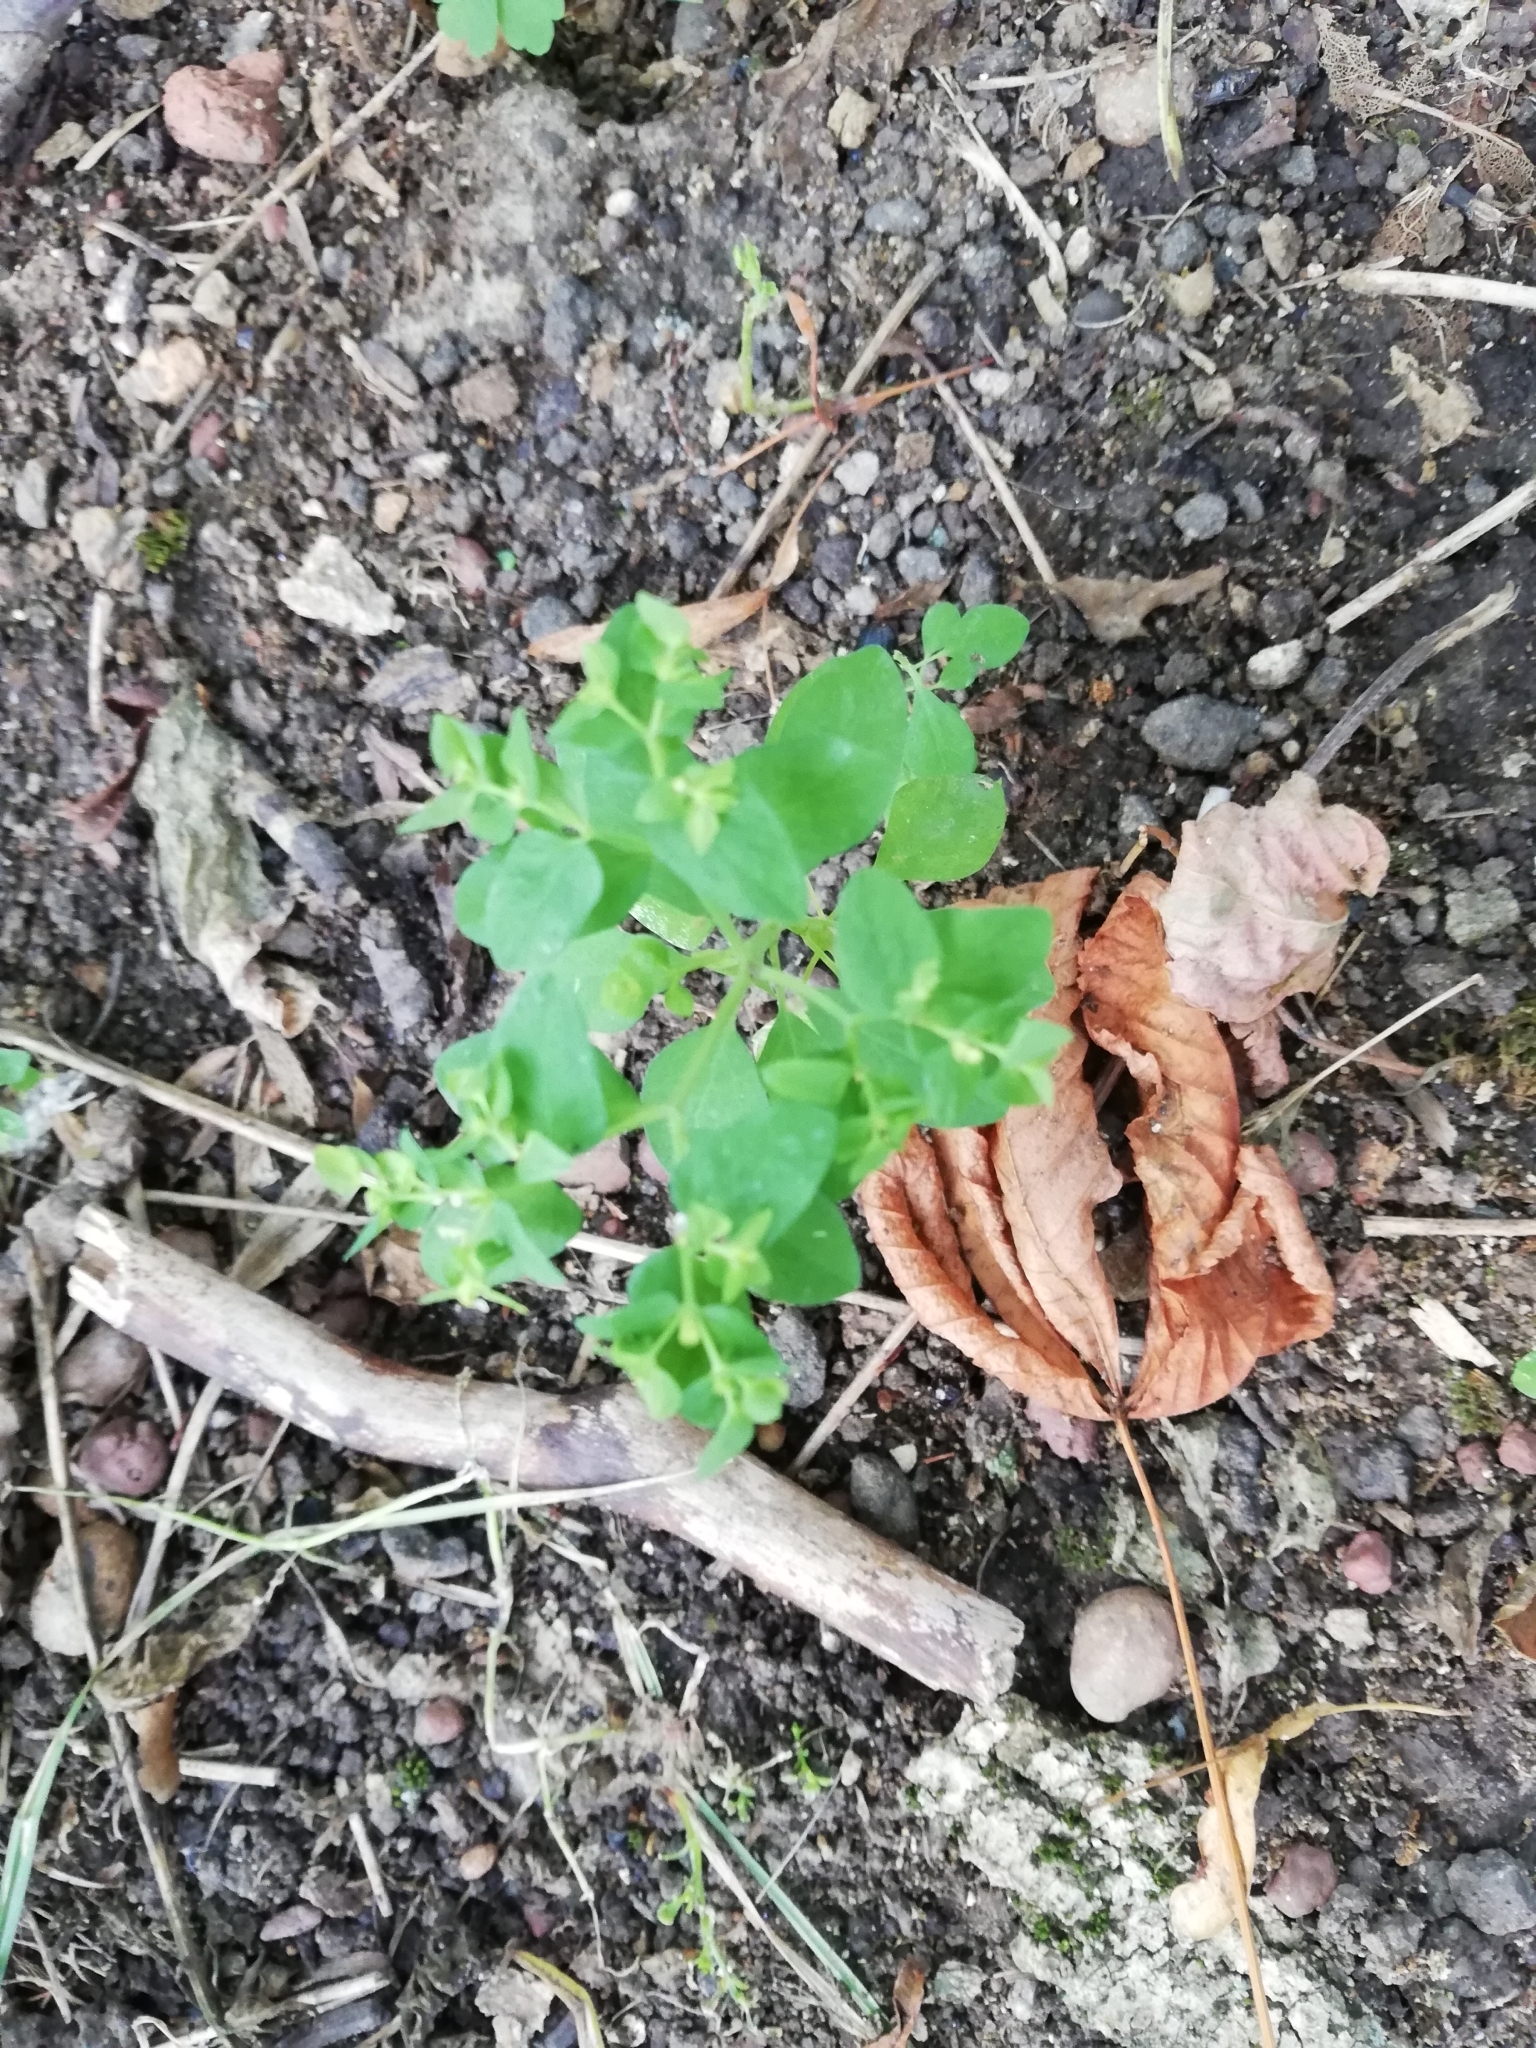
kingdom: Plantae
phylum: Tracheophyta
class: Magnoliopsida
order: Malpighiales
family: Euphorbiaceae
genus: Euphorbia
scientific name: Euphorbia peplus
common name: Petty spurge
